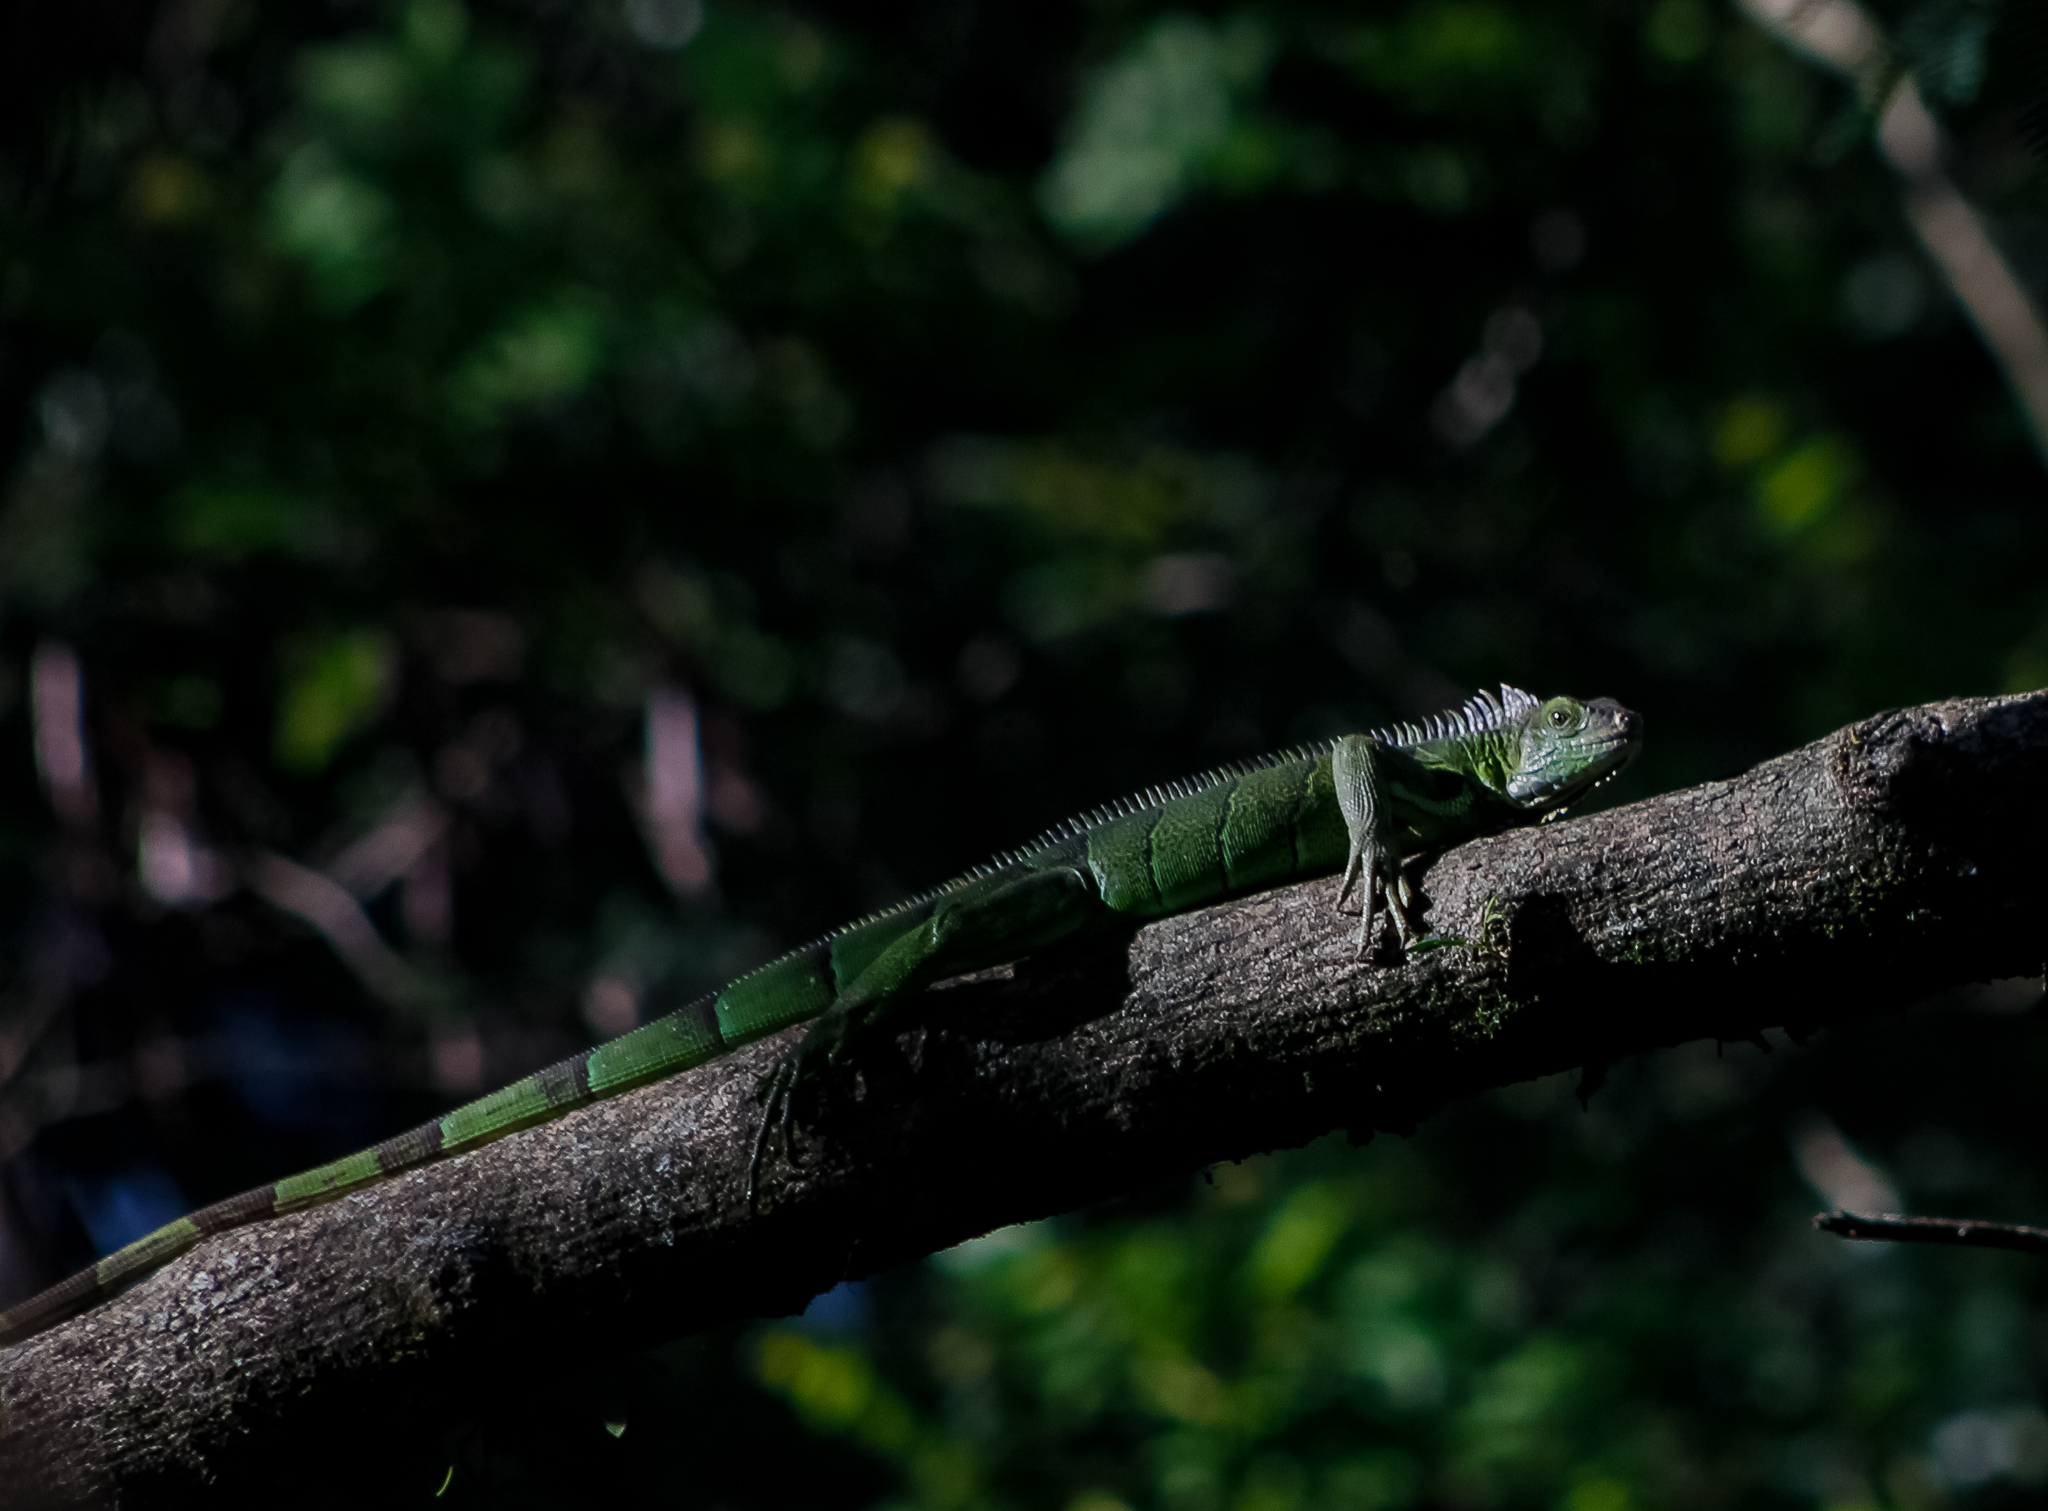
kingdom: Animalia
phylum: Chordata
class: Squamata
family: Iguanidae
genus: Iguana
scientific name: Iguana iguana
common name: Green iguana
